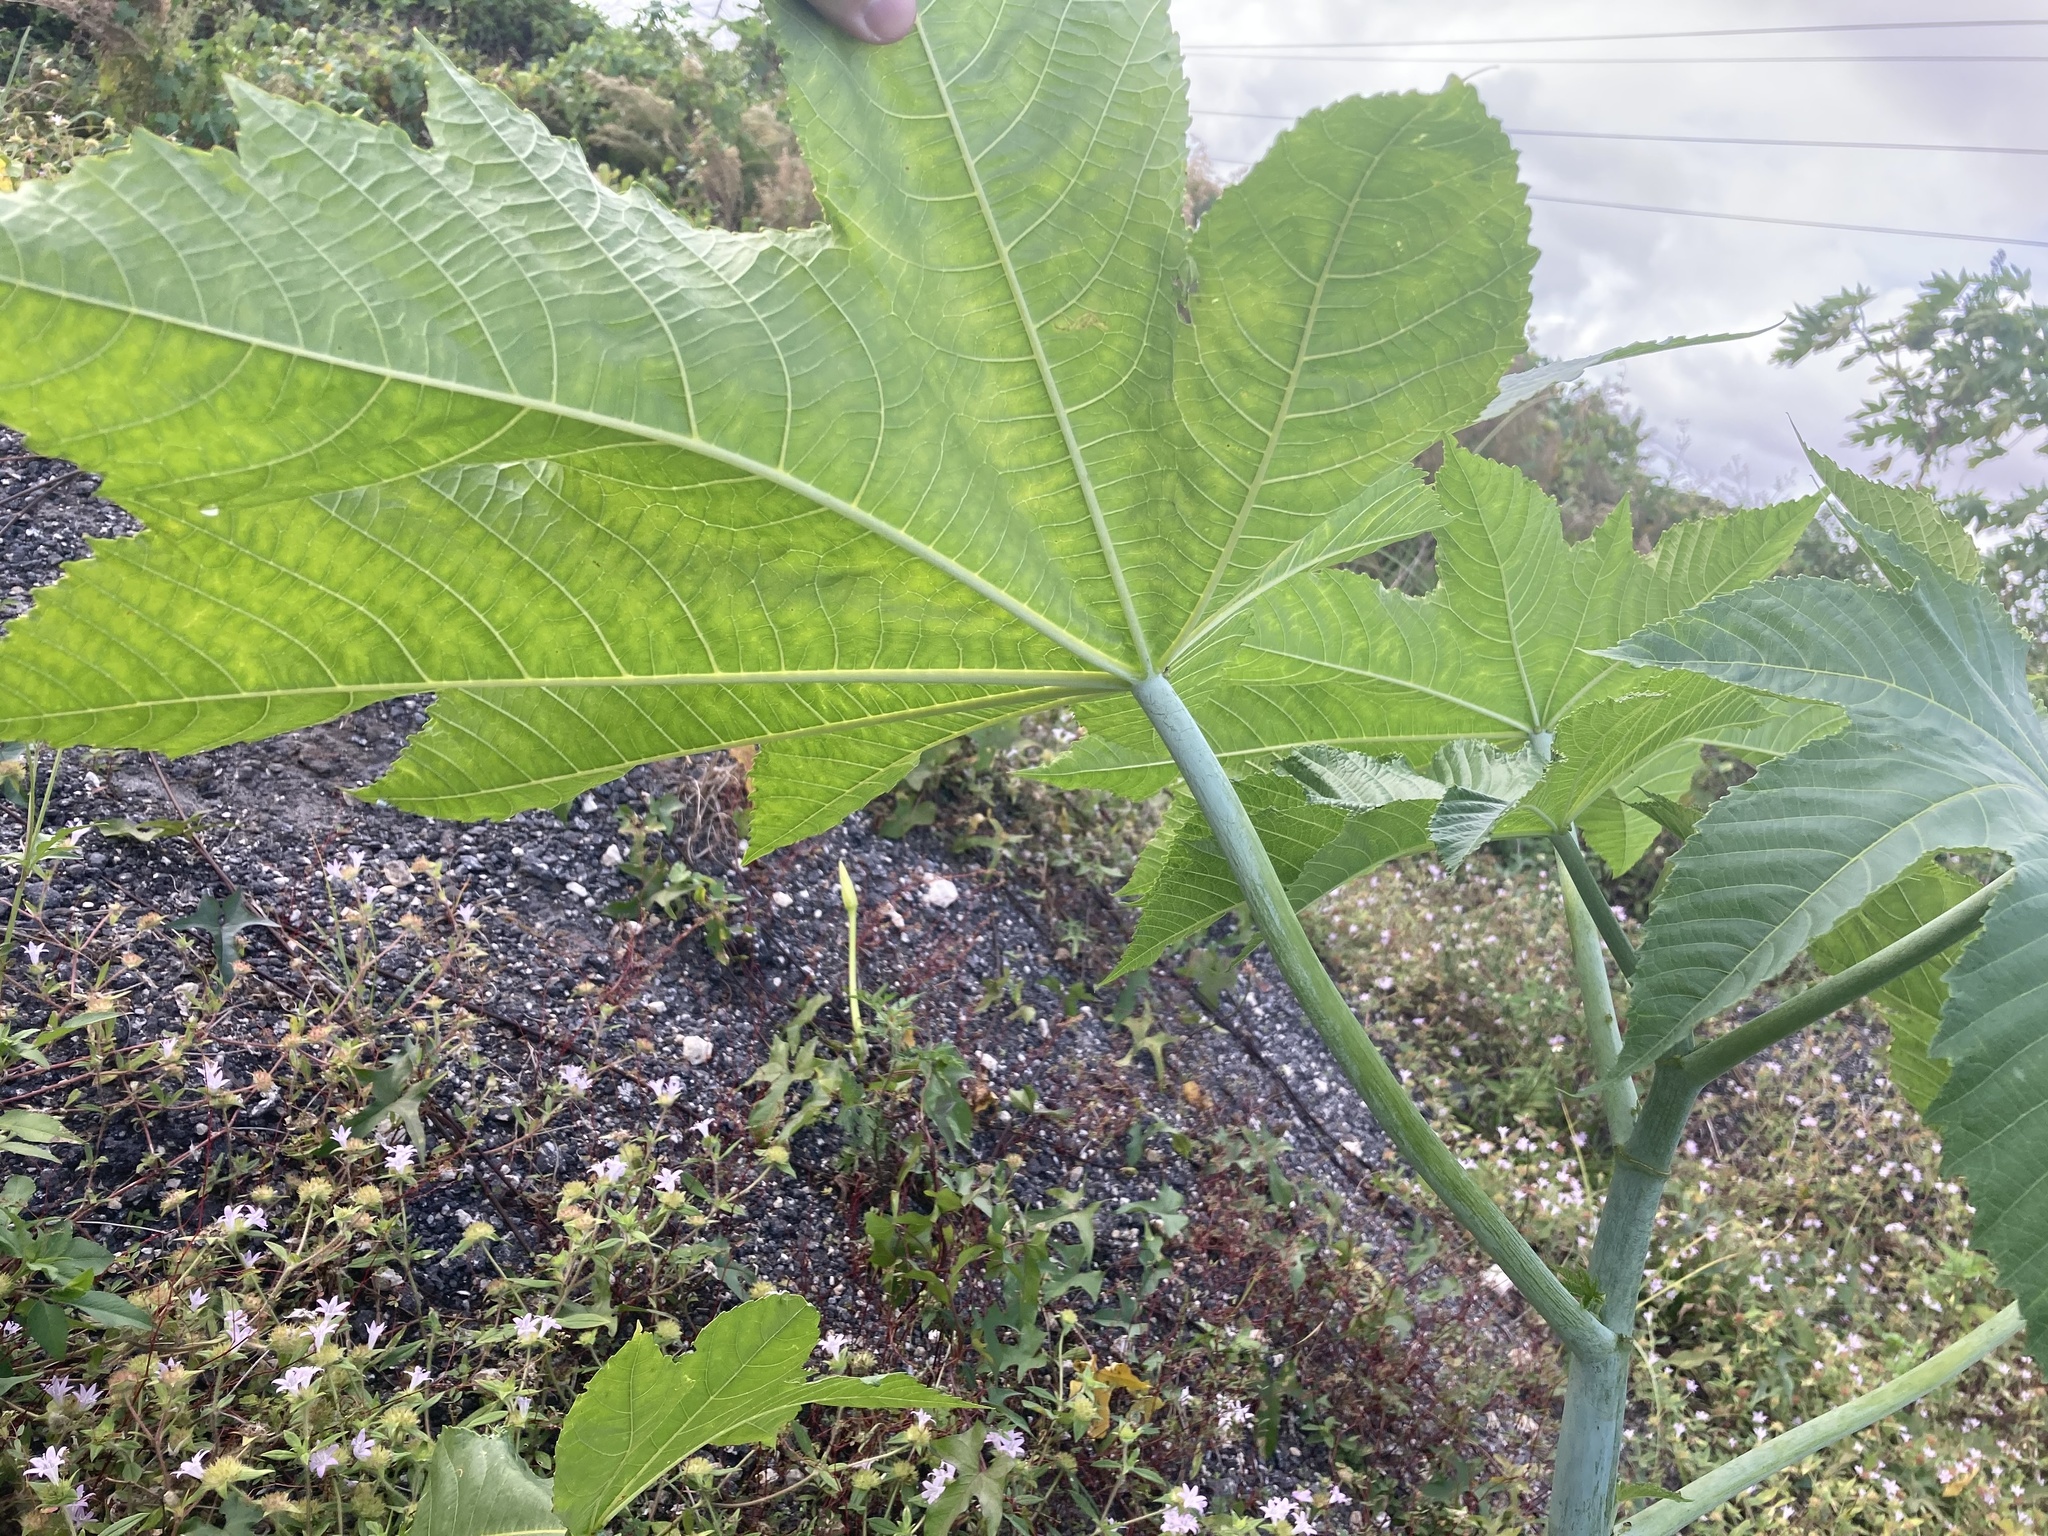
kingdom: Plantae
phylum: Tracheophyta
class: Magnoliopsida
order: Malpighiales
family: Euphorbiaceae
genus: Ricinus
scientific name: Ricinus communis
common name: Castor-oil-plant
